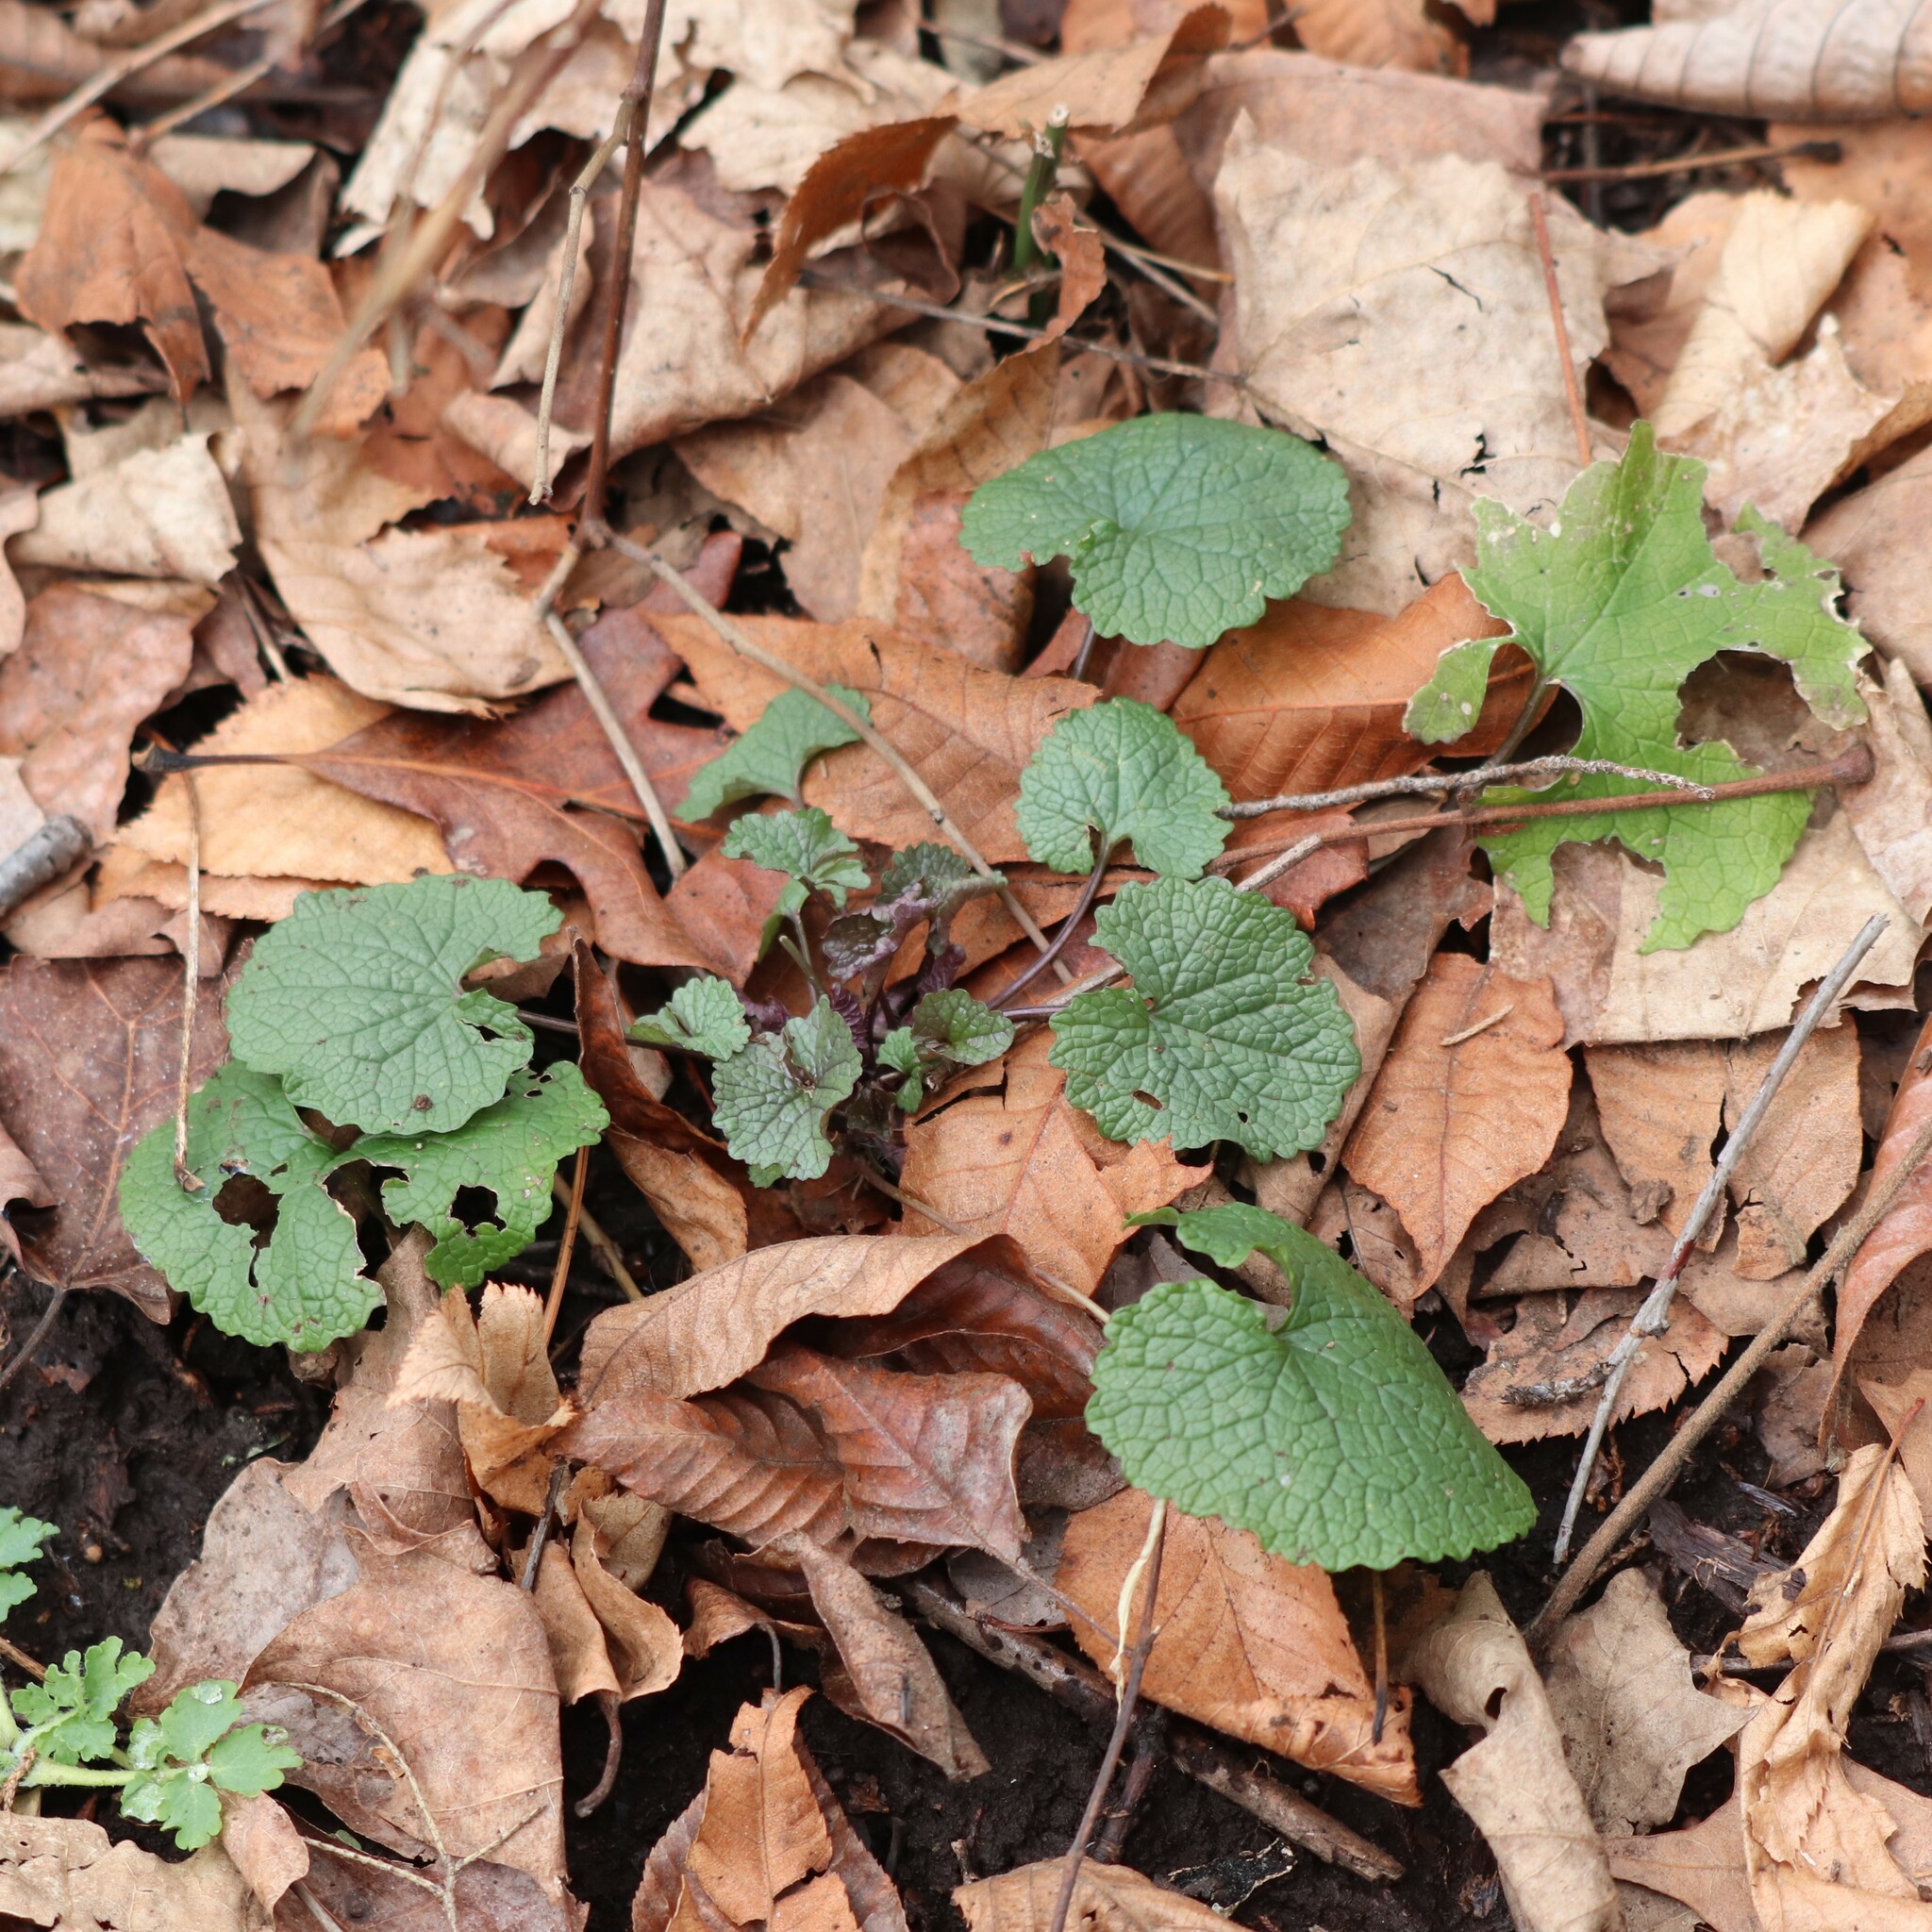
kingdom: Plantae
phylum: Tracheophyta
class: Magnoliopsida
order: Brassicales
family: Brassicaceae
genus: Alliaria
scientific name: Alliaria petiolata
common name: Garlic mustard
